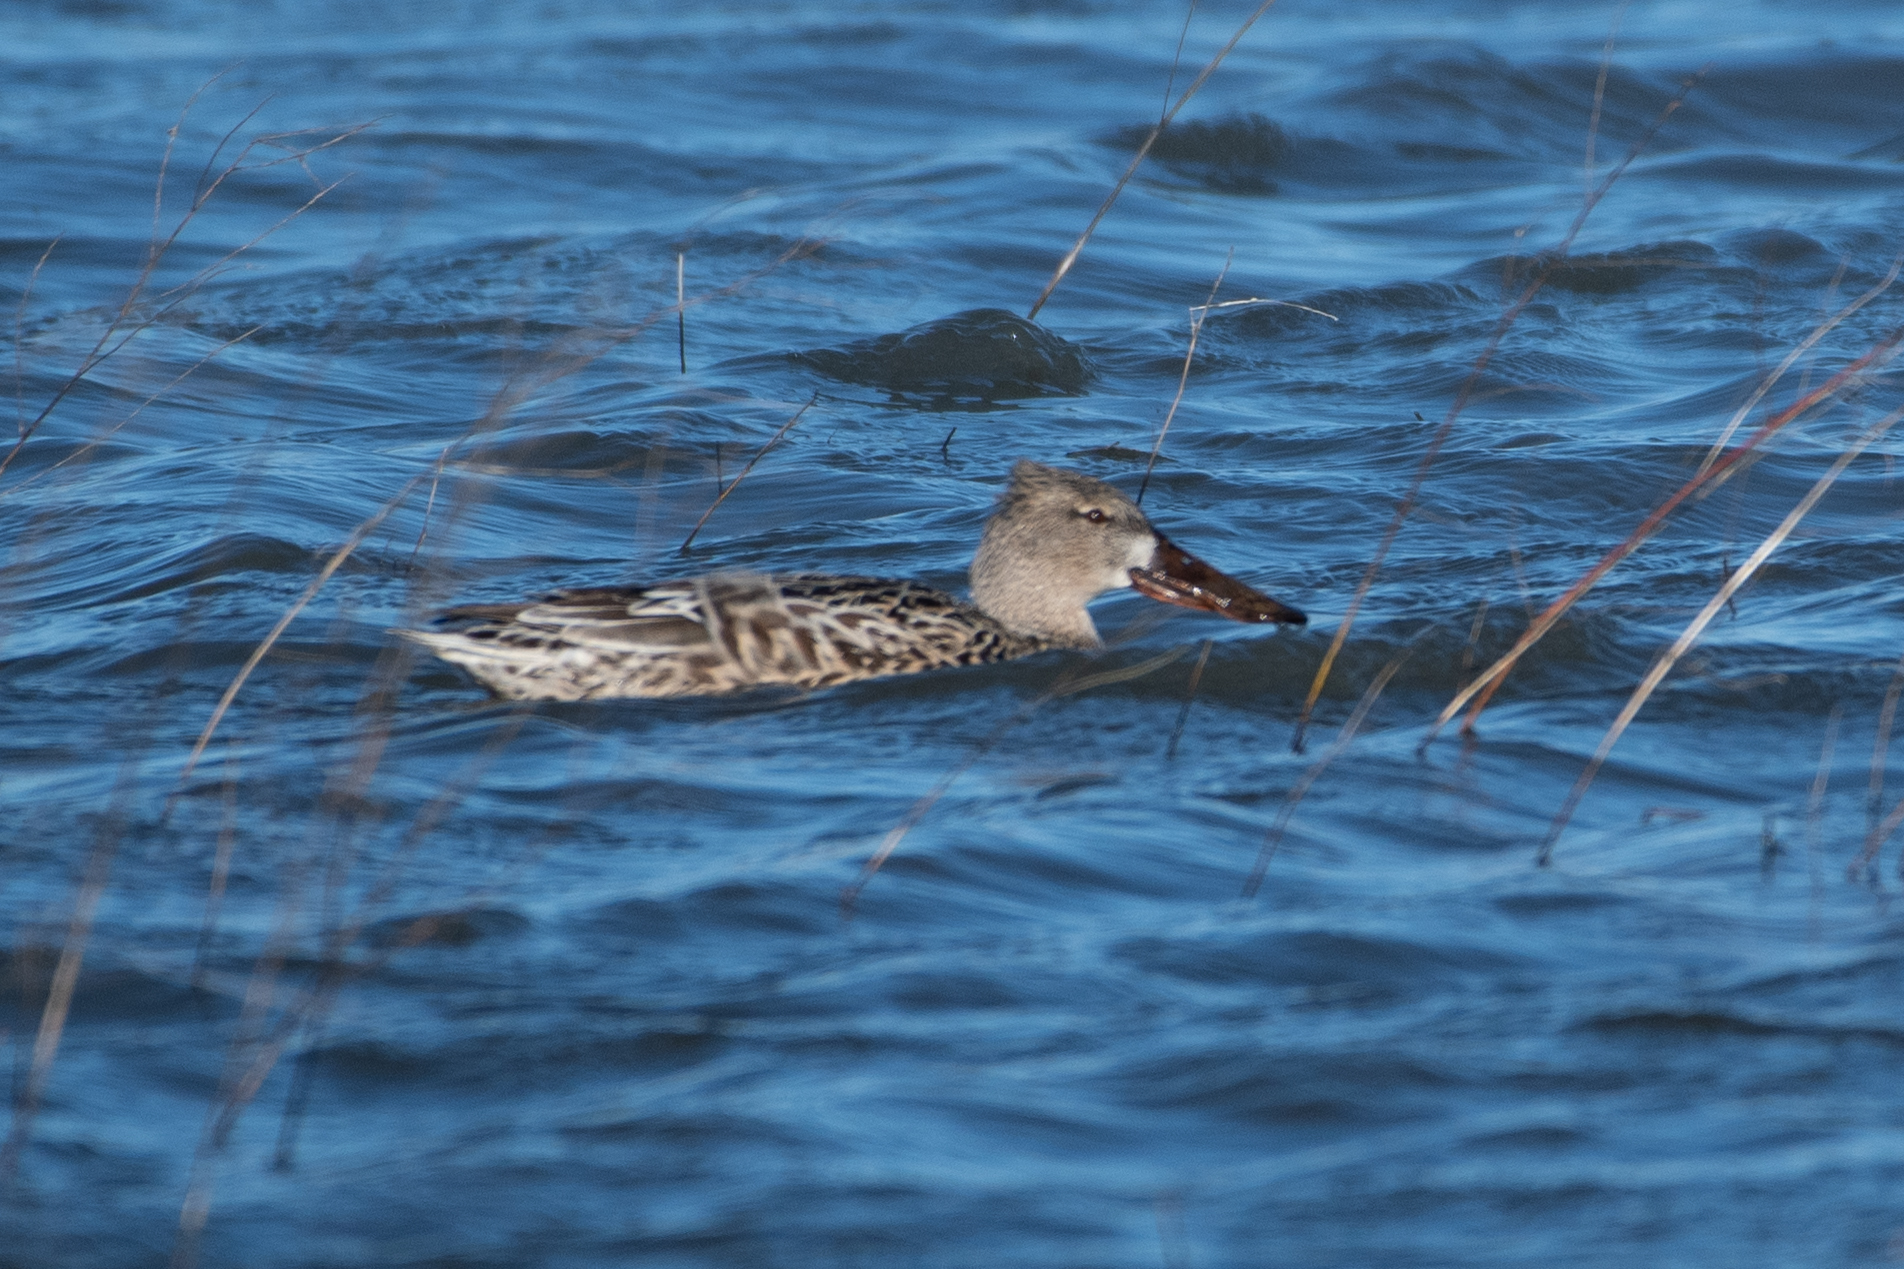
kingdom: Animalia
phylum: Chordata
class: Aves
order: Anseriformes
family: Anatidae
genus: Spatula
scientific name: Spatula clypeata
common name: Northern shoveler
